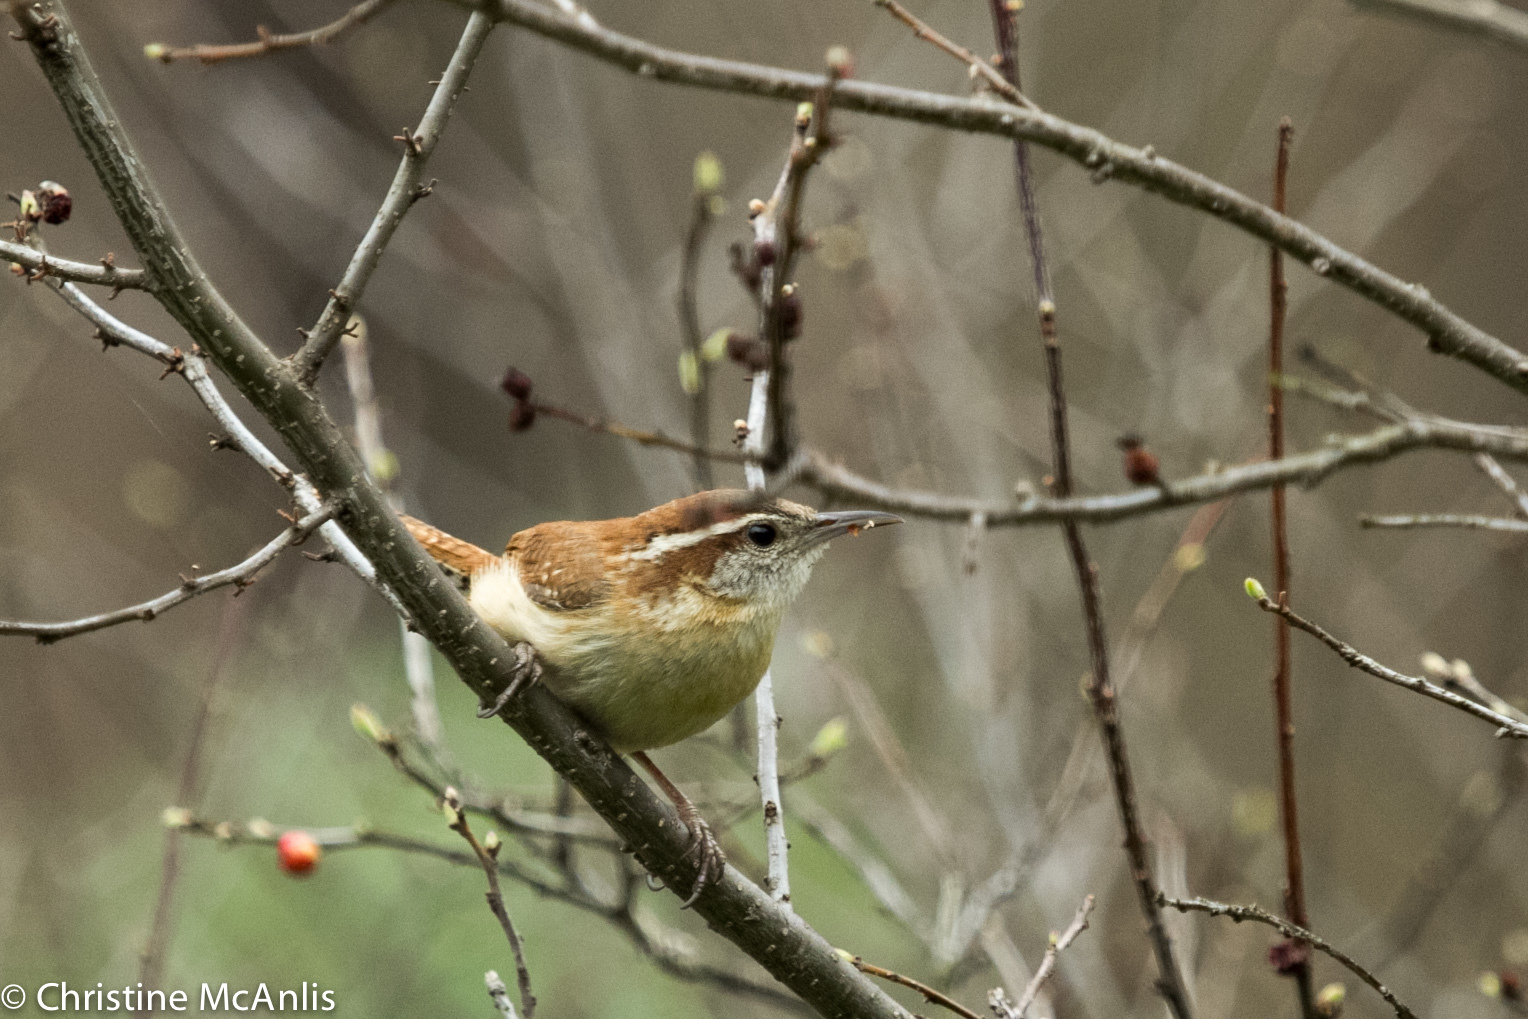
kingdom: Animalia
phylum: Chordata
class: Aves
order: Passeriformes
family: Troglodytidae
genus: Thryothorus
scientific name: Thryothorus ludovicianus
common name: Carolina wren
